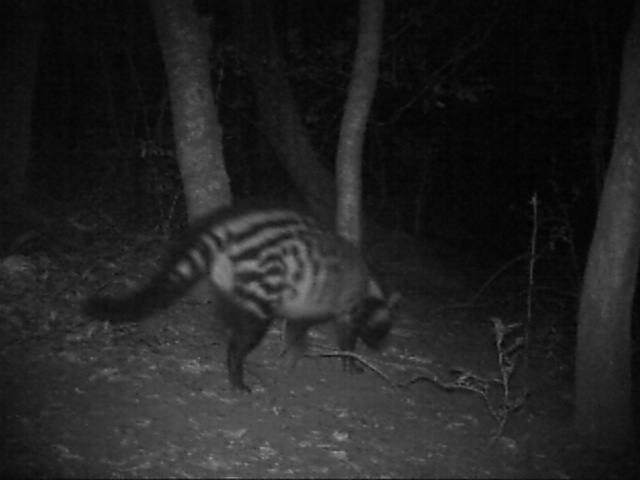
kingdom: Animalia
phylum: Chordata
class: Mammalia
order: Carnivora
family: Viverridae
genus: Civettictis
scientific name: Civettictis civetta
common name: African civet
